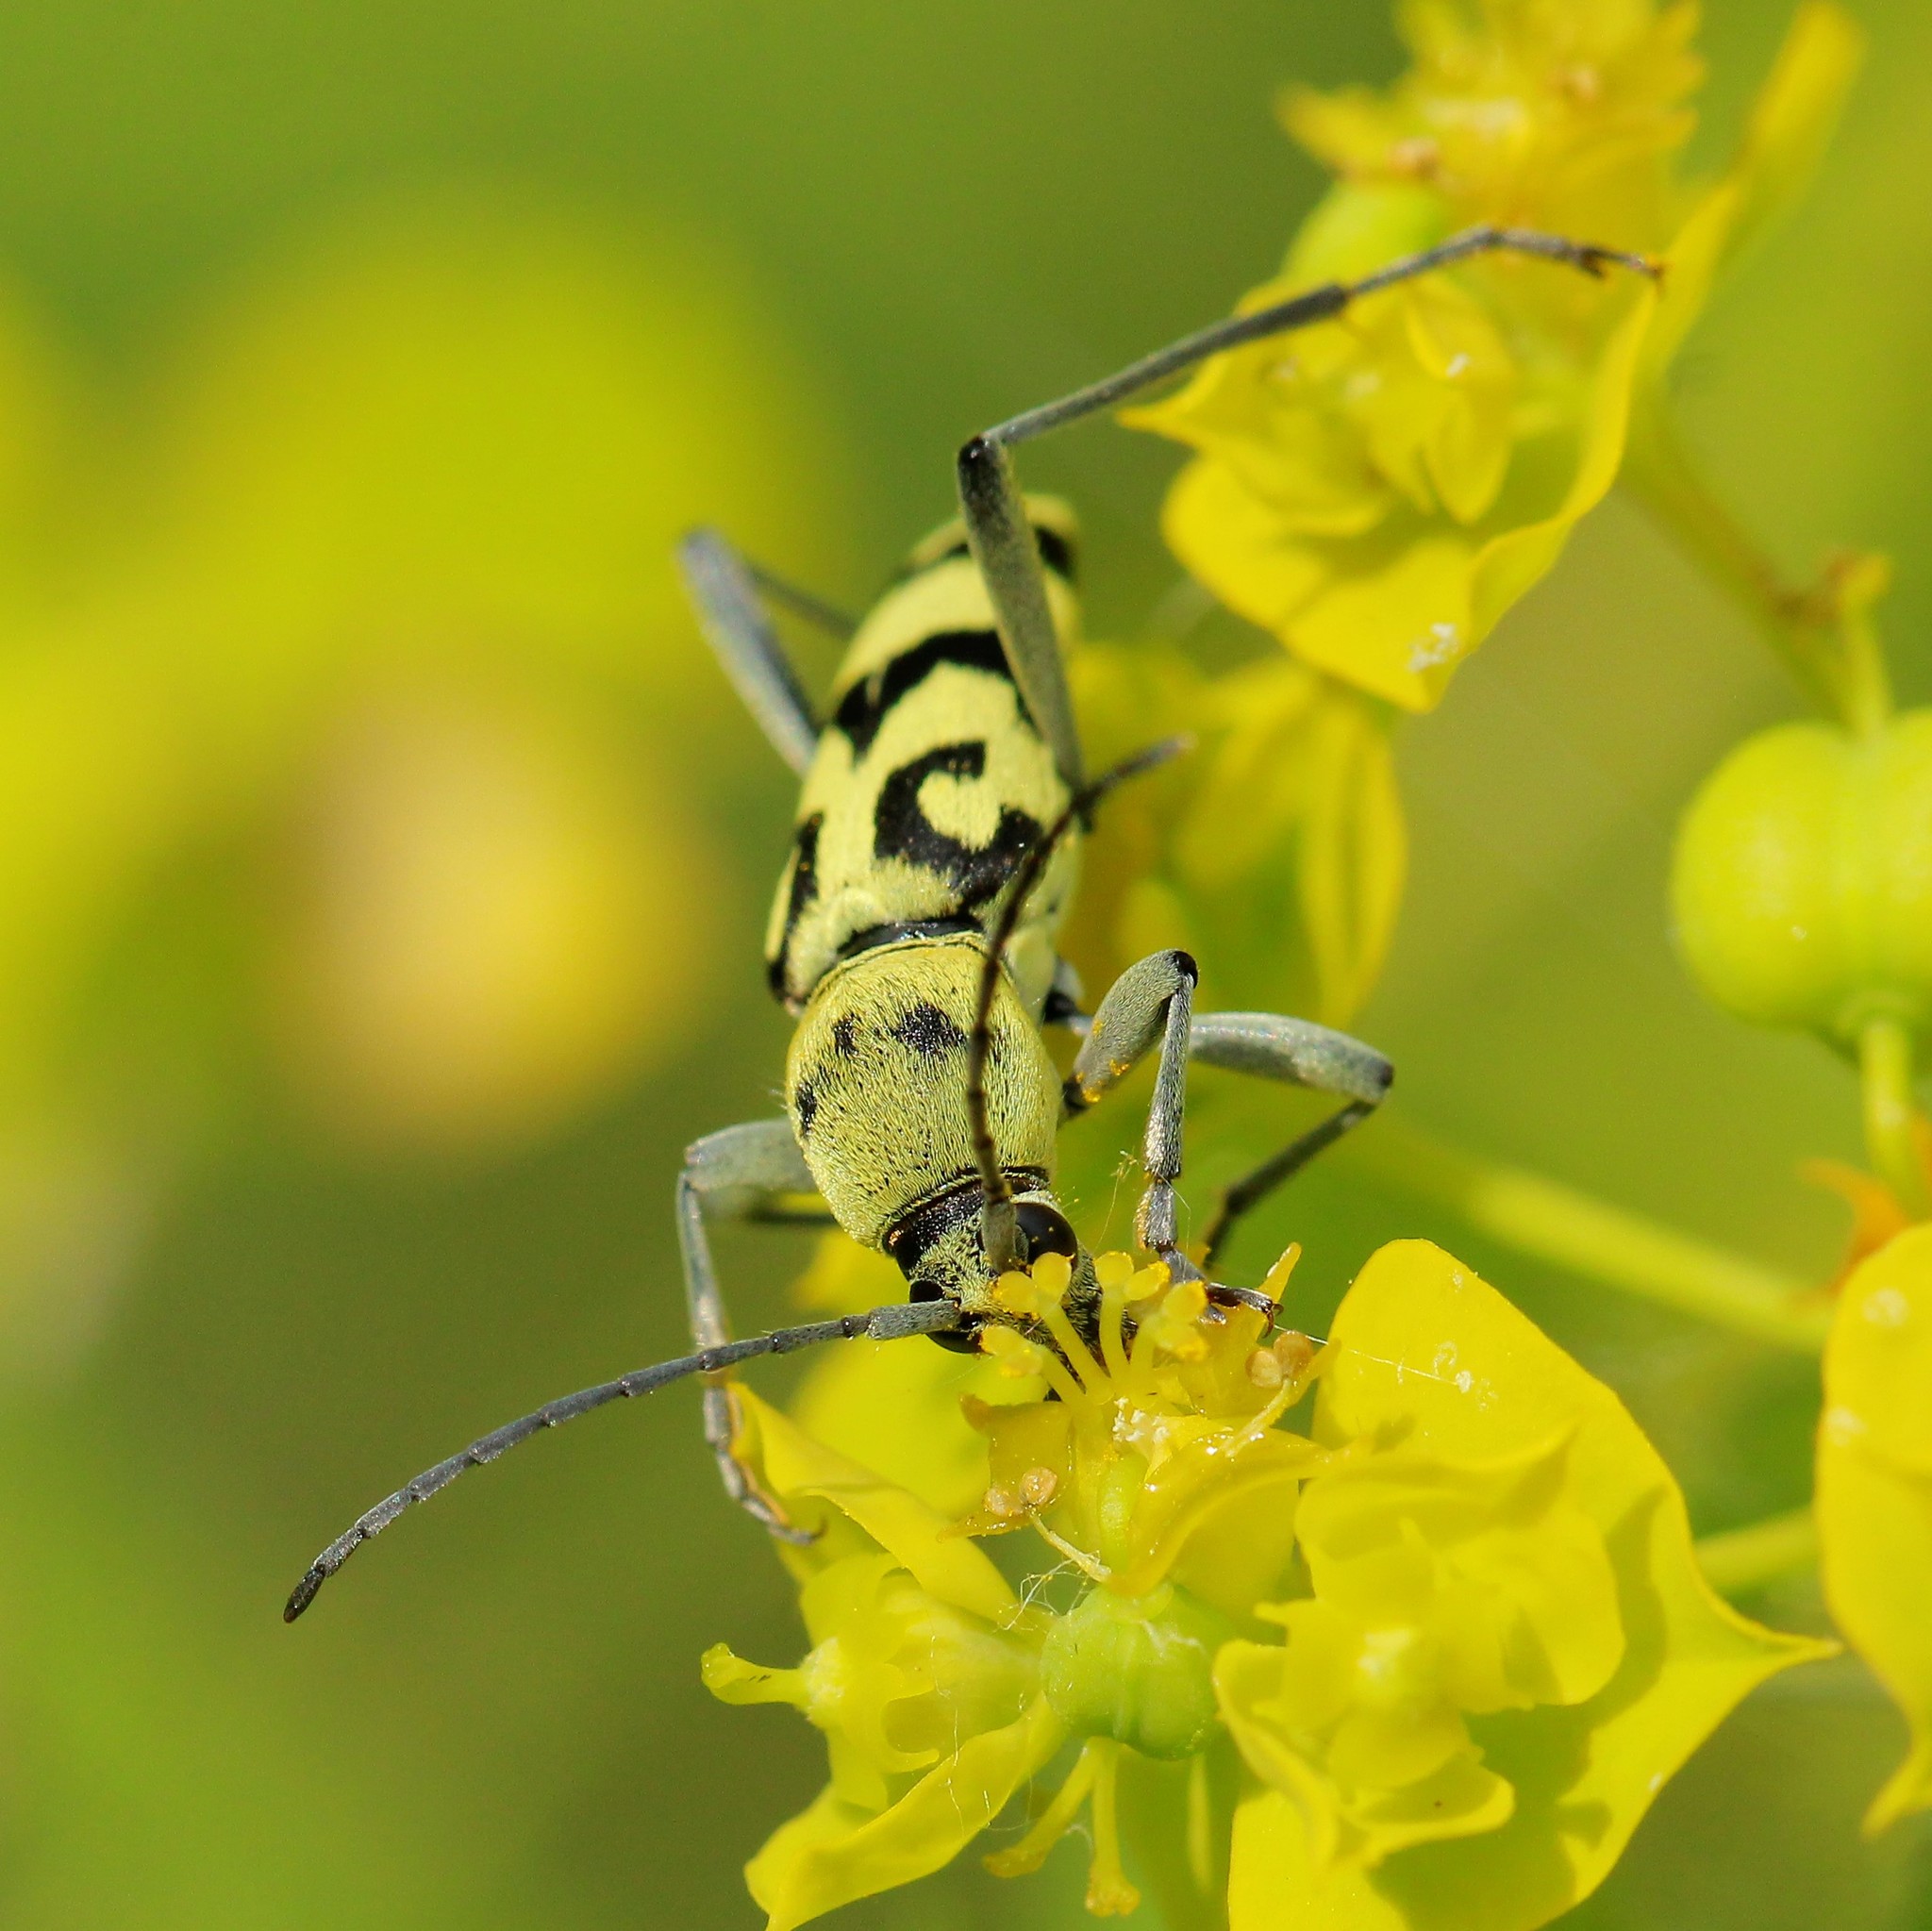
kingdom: Animalia
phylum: Arthropoda
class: Insecta
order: Coleoptera
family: Cerambycidae
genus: Chlorophorus
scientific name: Chlorophorus varius
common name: Grape wood borer
